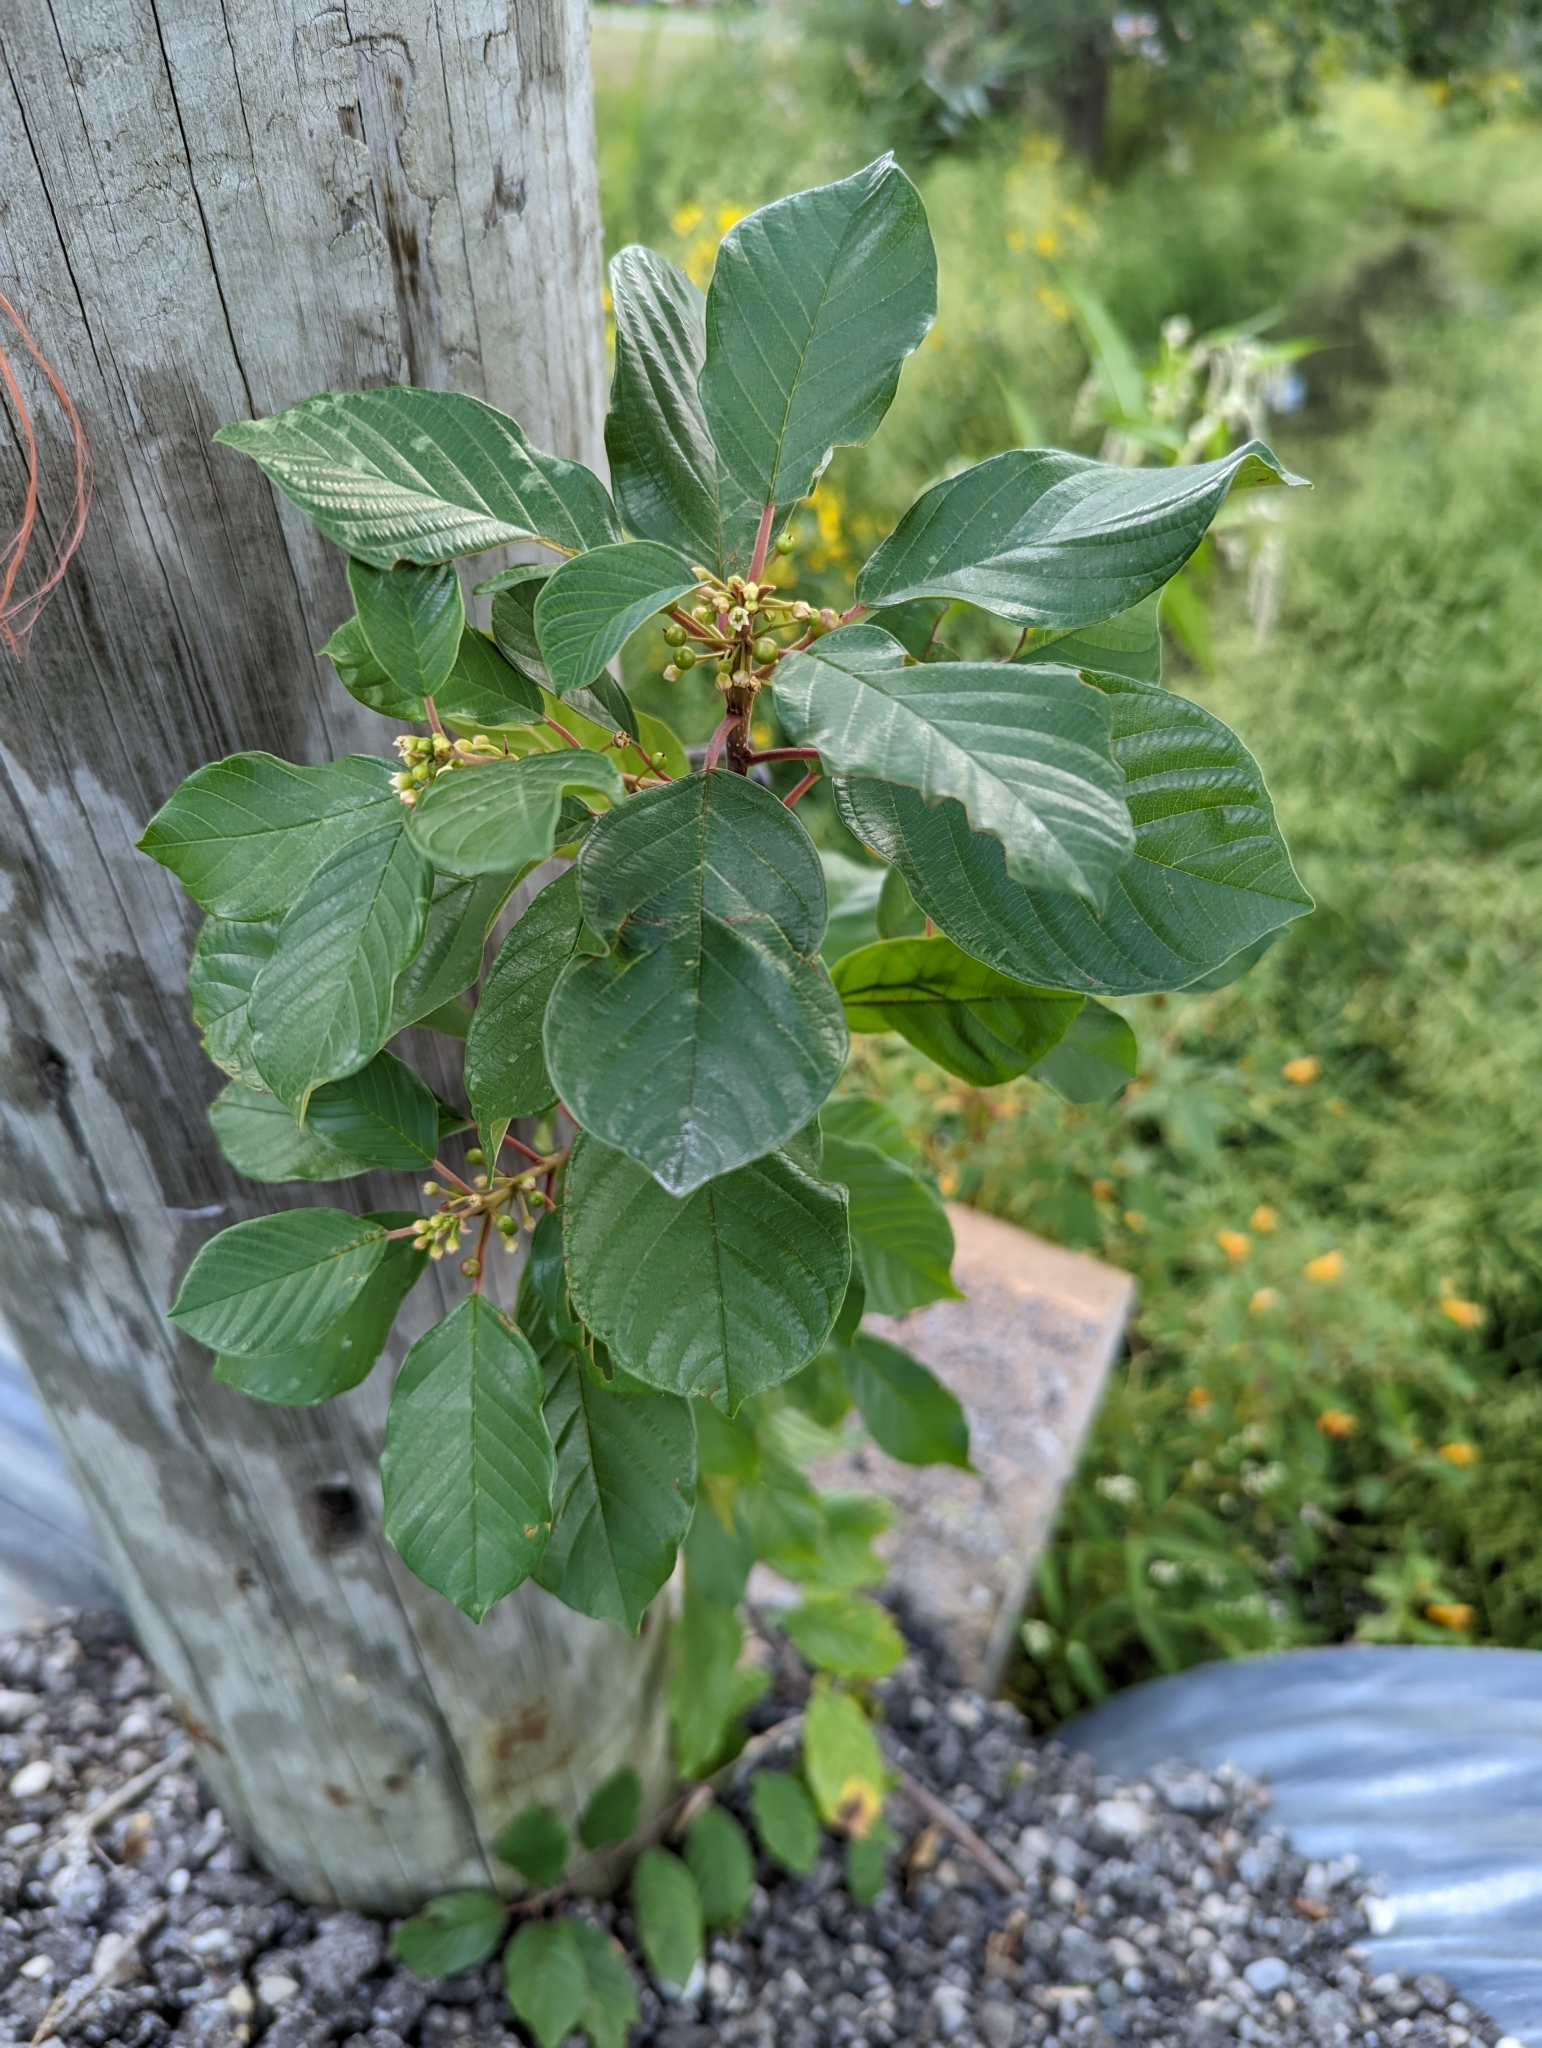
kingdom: Plantae
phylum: Tracheophyta
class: Magnoliopsida
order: Rosales
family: Rhamnaceae
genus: Frangula
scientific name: Frangula alnus
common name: Alder buckthorn
